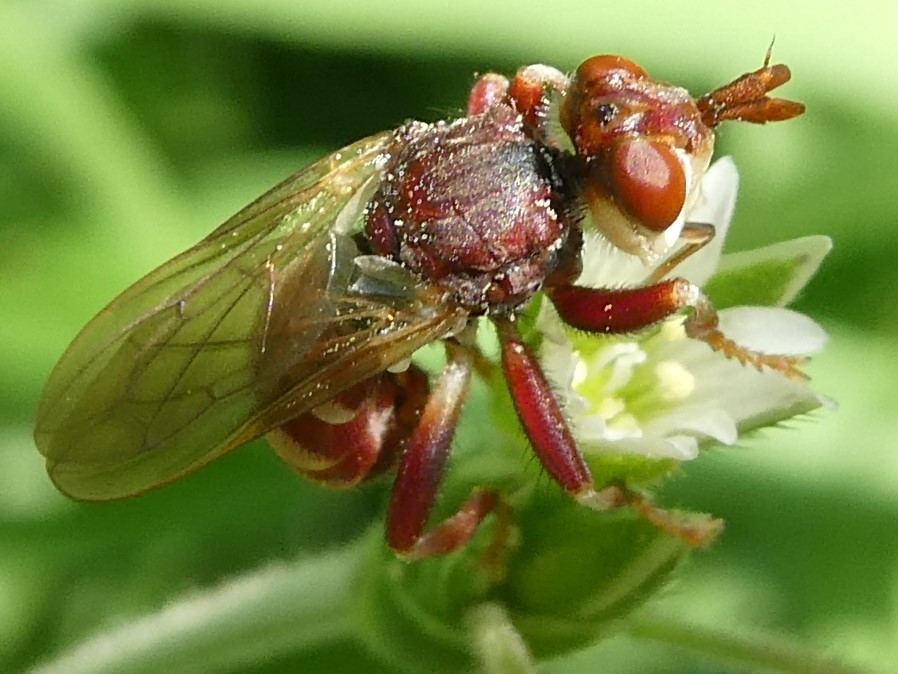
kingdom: Animalia
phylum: Arthropoda
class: Insecta
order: Diptera
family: Conopidae
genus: Myopa
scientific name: Myopa clausa
